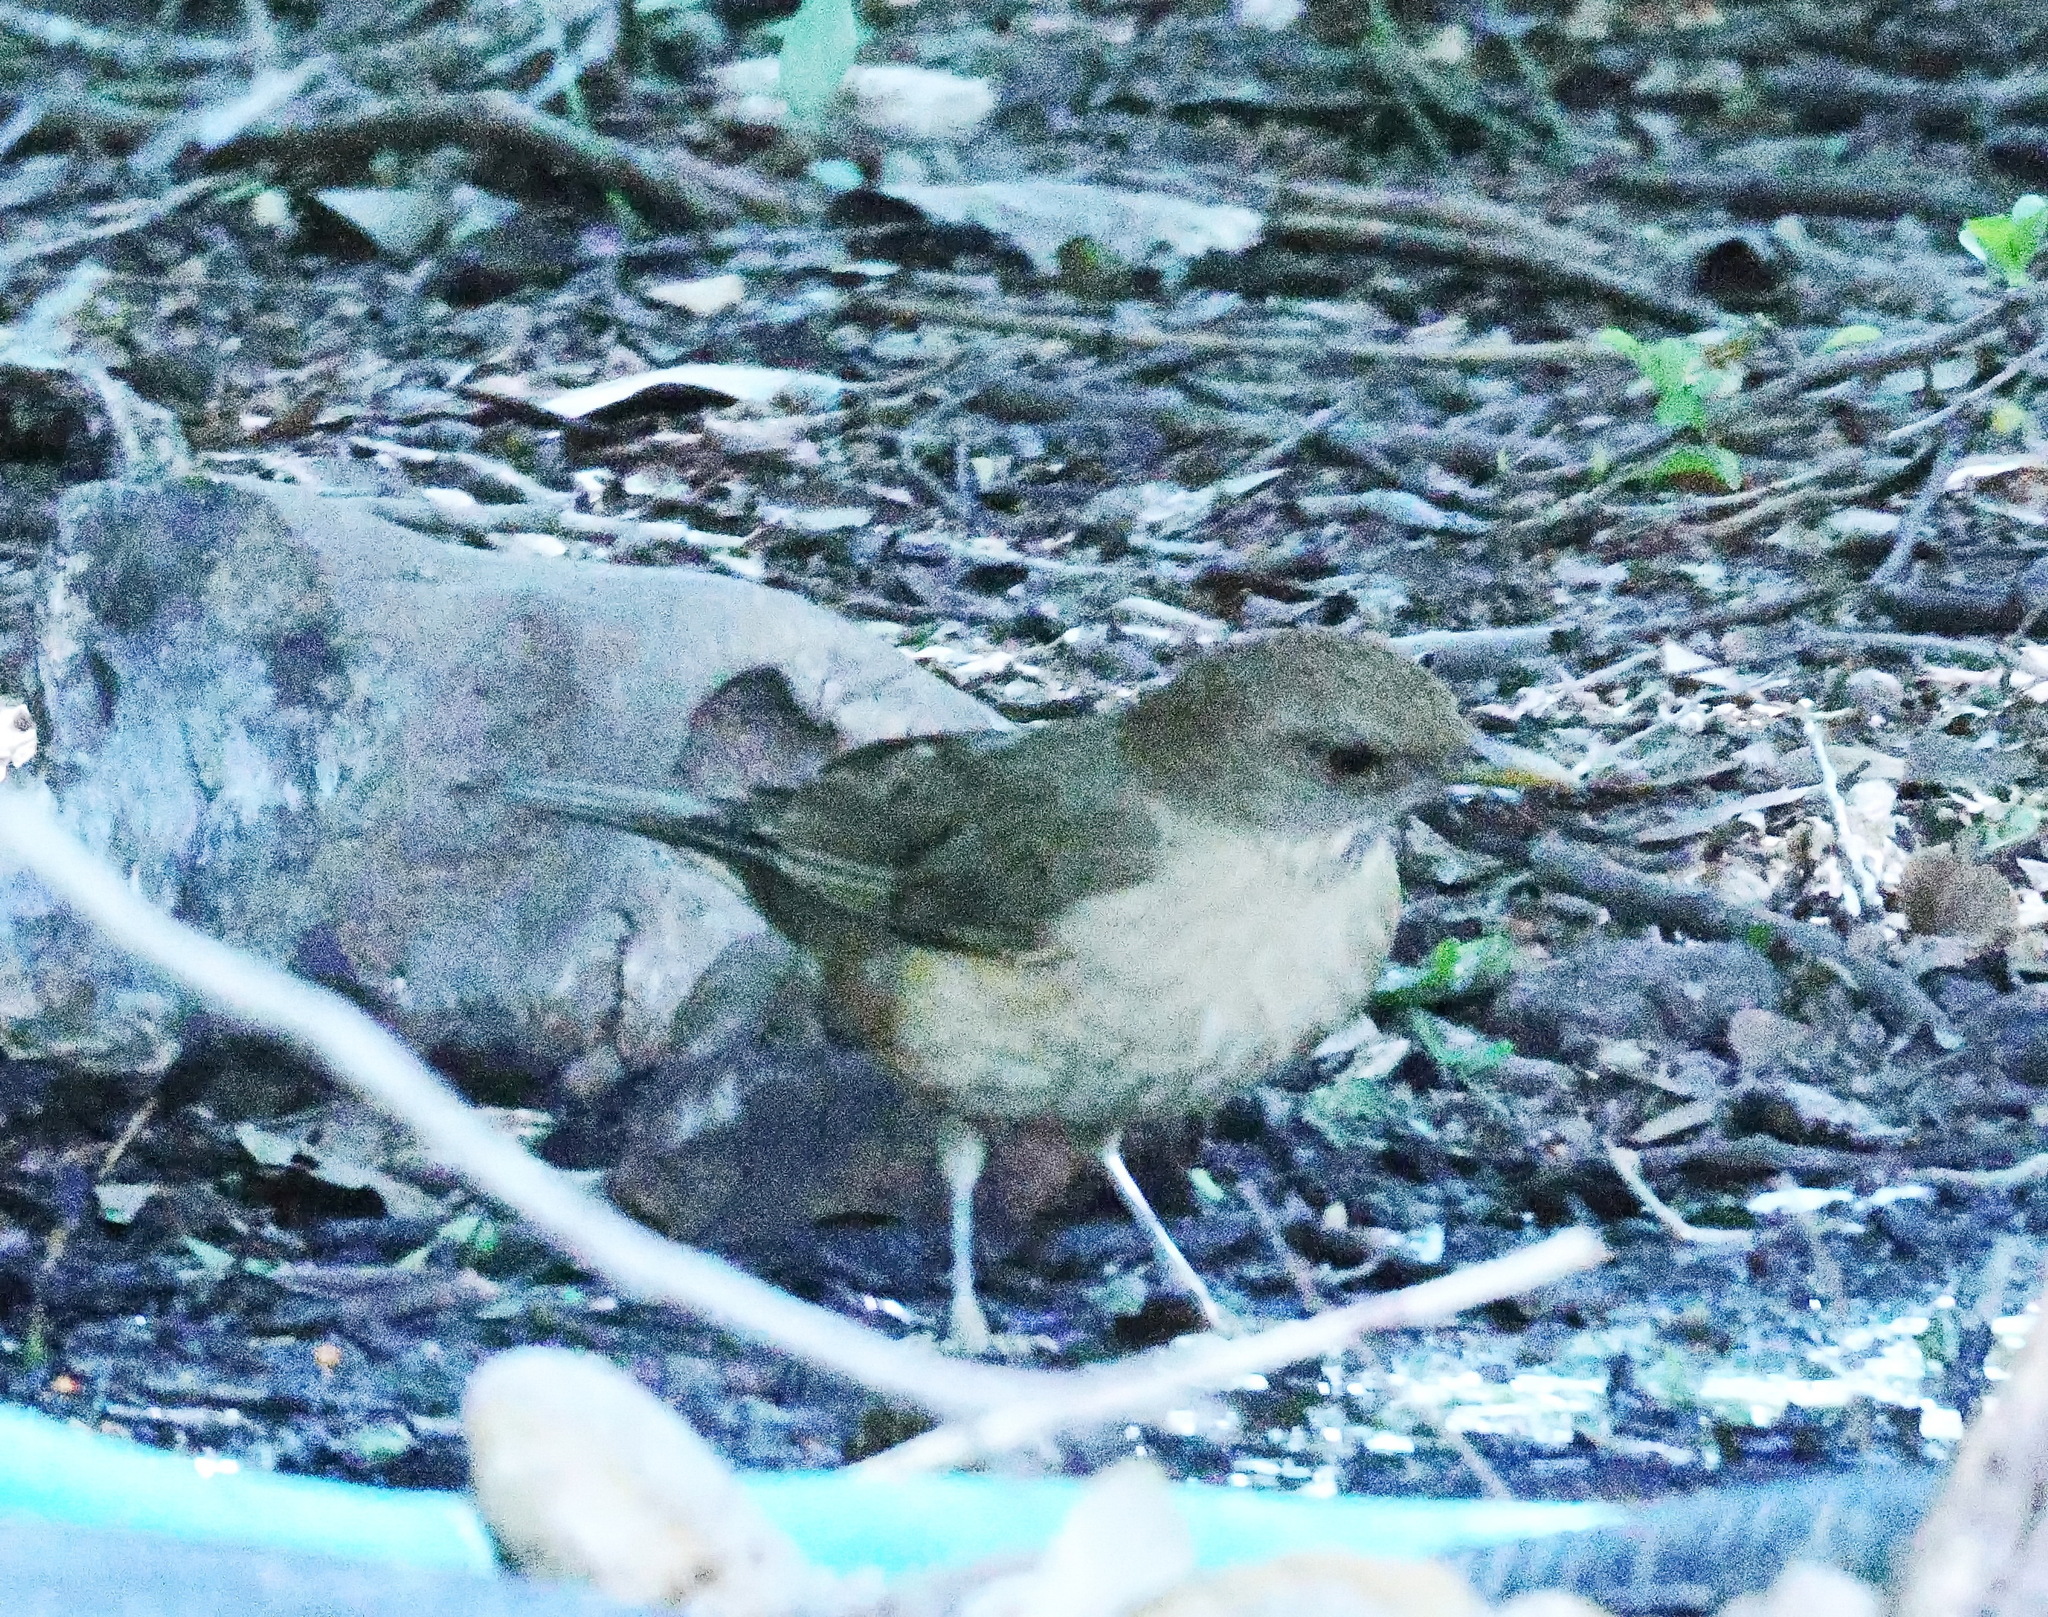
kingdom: Animalia
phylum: Chordata
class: Aves
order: Passeriformes
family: Turdidae
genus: Turdus
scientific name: Turdus grayi
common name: Clay-colored thrush
